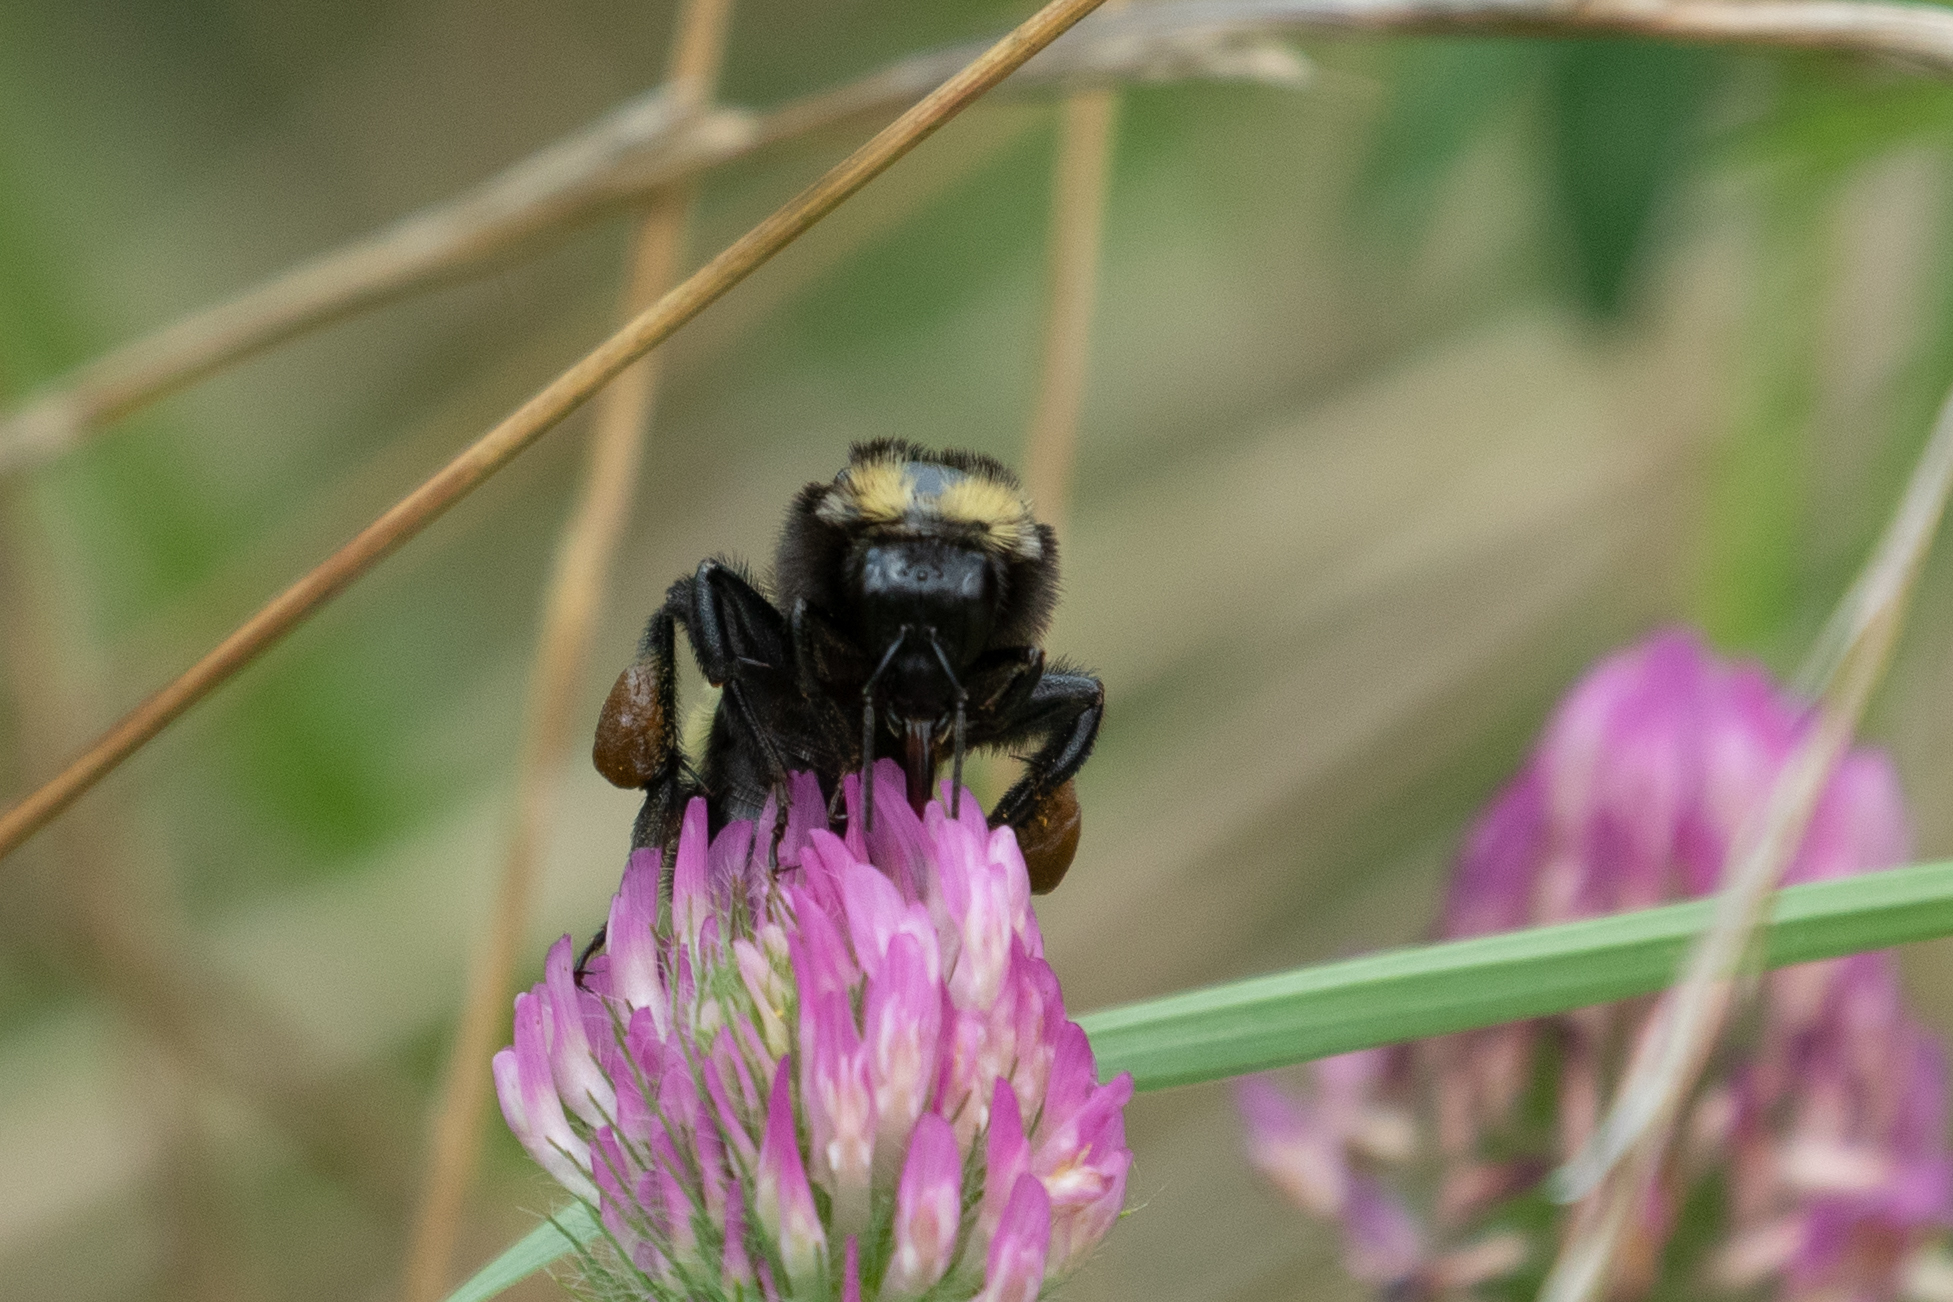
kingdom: Animalia
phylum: Arthropoda
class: Insecta
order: Hymenoptera
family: Apidae
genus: Bombus
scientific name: Bombus pensylvanicus
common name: Bumble bee
